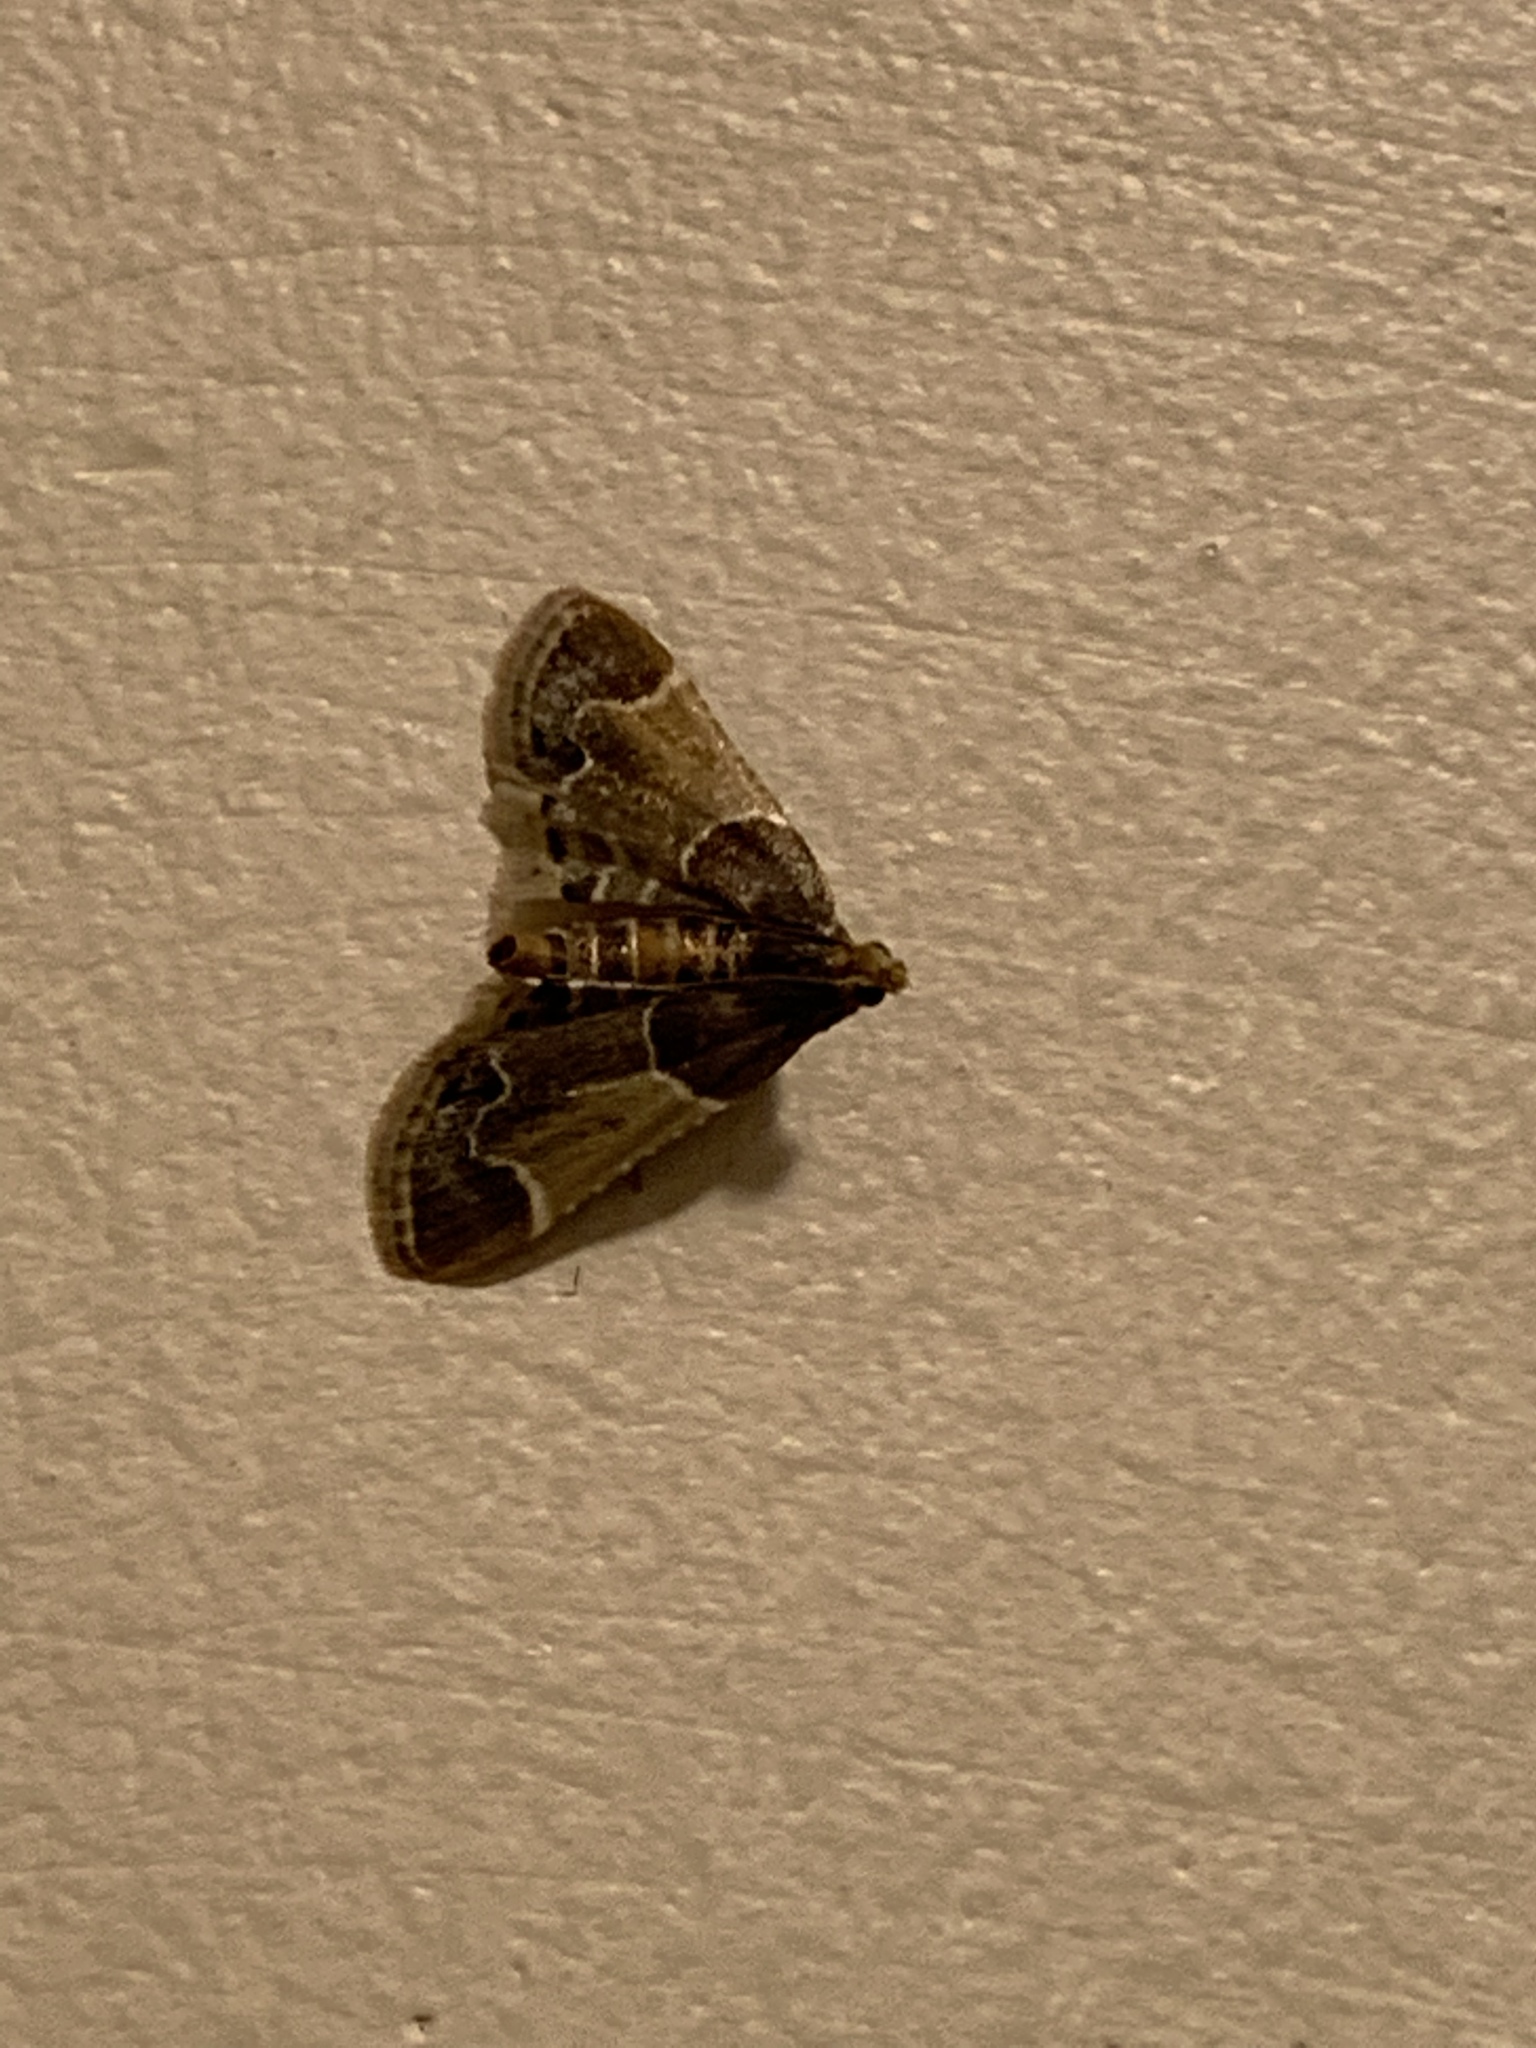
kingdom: Animalia
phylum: Arthropoda
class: Insecta
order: Lepidoptera
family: Pyralidae
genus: Pyralis
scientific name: Pyralis farinalis
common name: Meal moth
